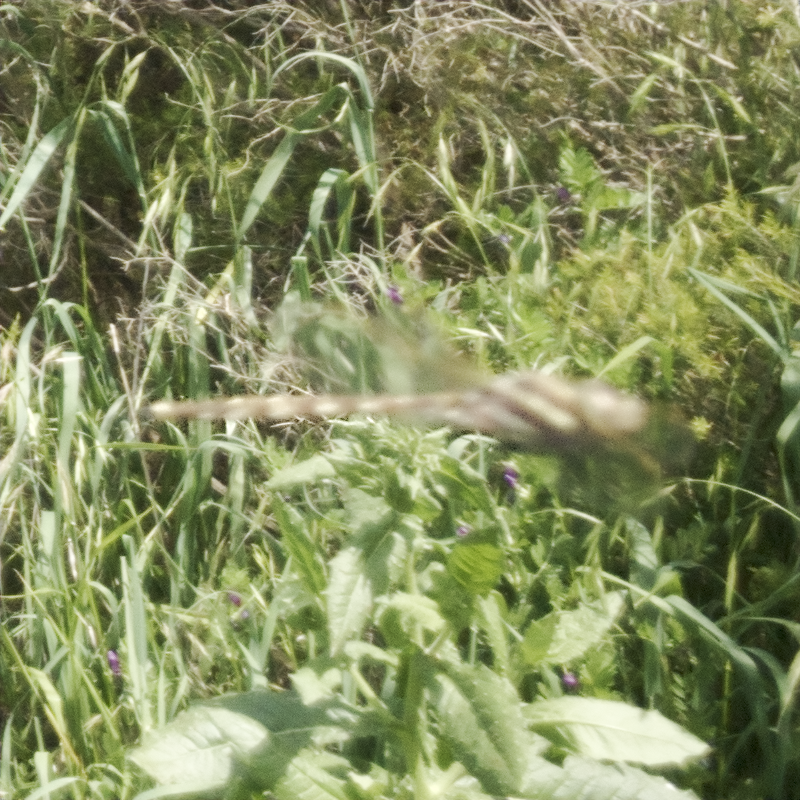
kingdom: Animalia
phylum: Arthropoda
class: Insecta
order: Odonata
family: Aeshnidae
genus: Aeshna
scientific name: Aeshna brevistyla
